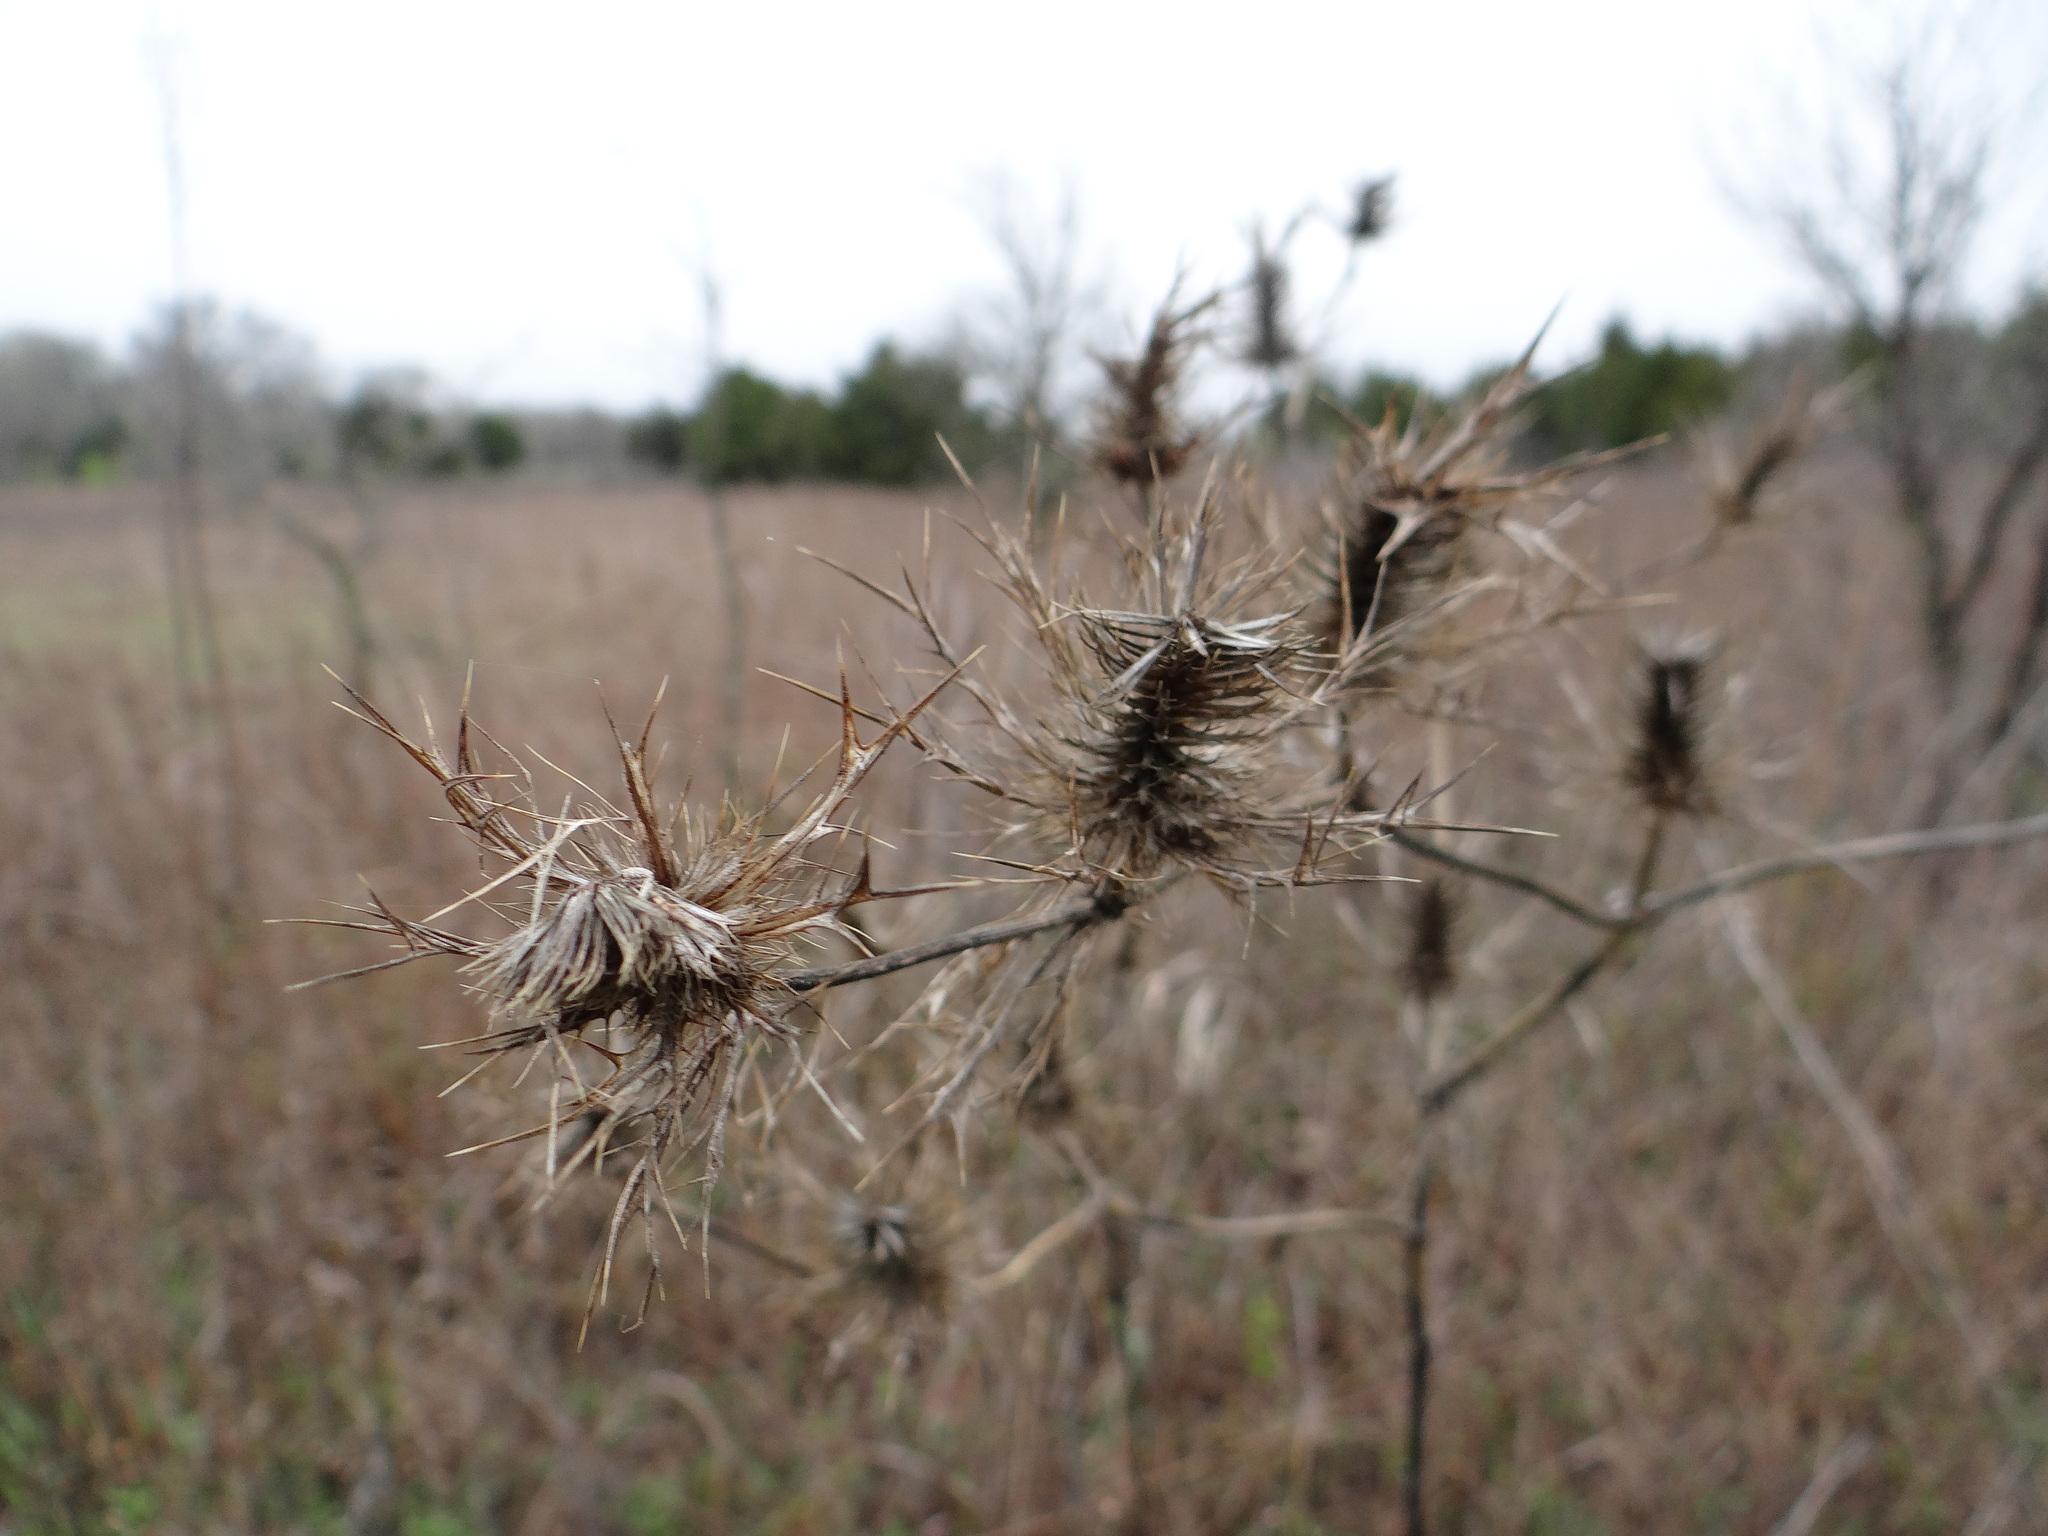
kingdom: Plantae
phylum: Tracheophyta
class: Magnoliopsida
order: Apiales
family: Apiaceae
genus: Eryngium
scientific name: Eryngium leavenworthii
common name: Leavenworth's eryngo
